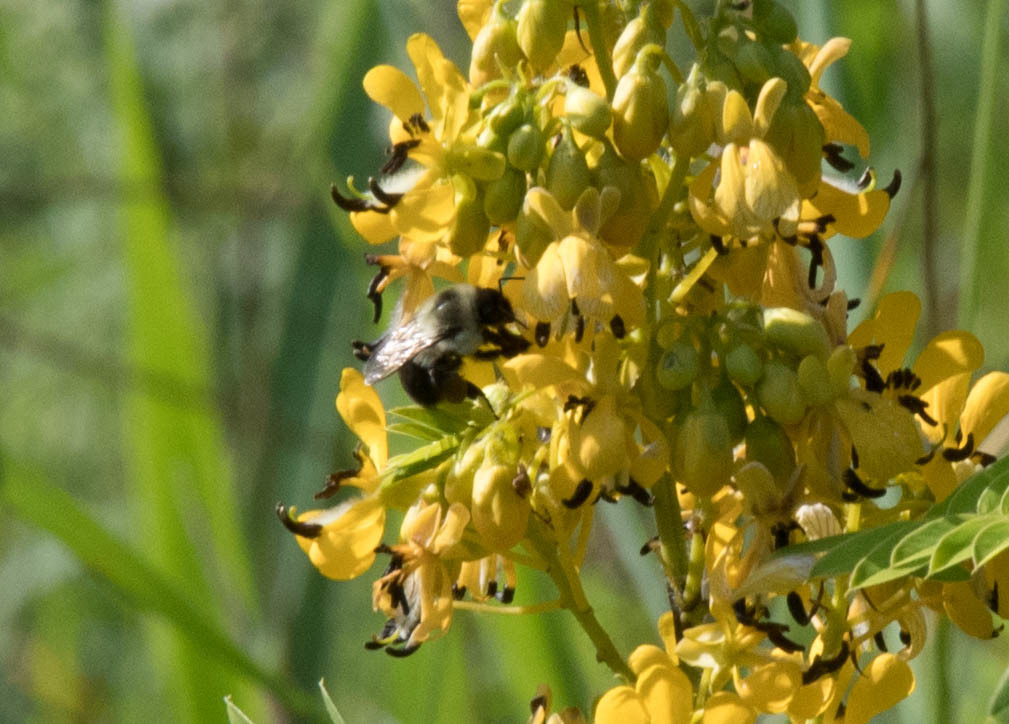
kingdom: Plantae
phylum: Tracheophyta
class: Magnoliopsida
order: Fabales
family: Fabaceae
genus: Senna
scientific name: Senna hebecarpa
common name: Wild senna
